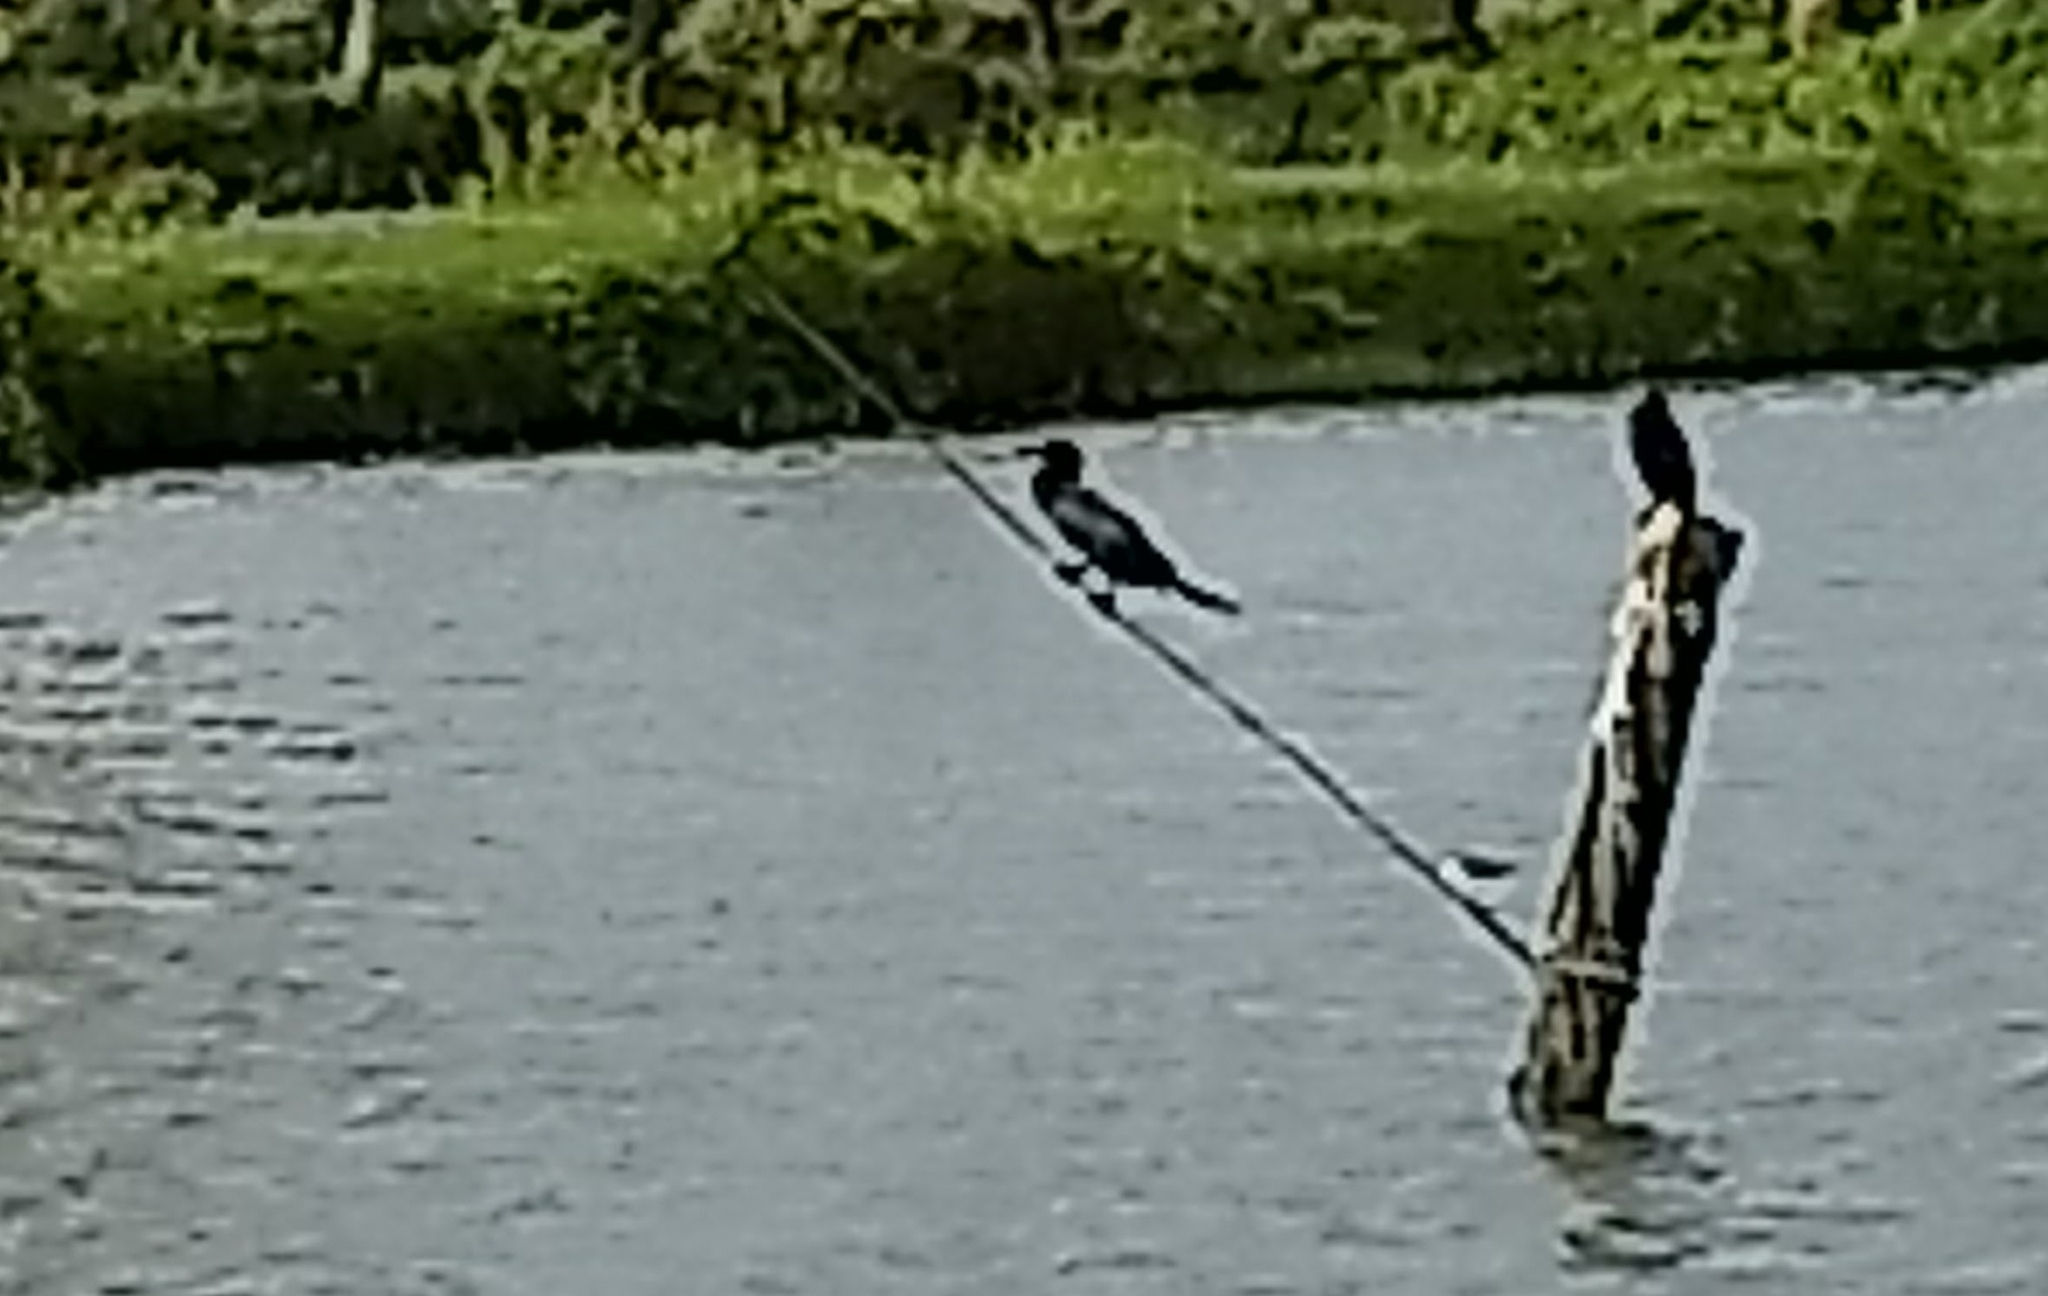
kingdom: Animalia
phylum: Chordata
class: Aves
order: Suliformes
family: Phalacrocoracidae
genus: Microcarbo
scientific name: Microcarbo niger
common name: Little cormorant
